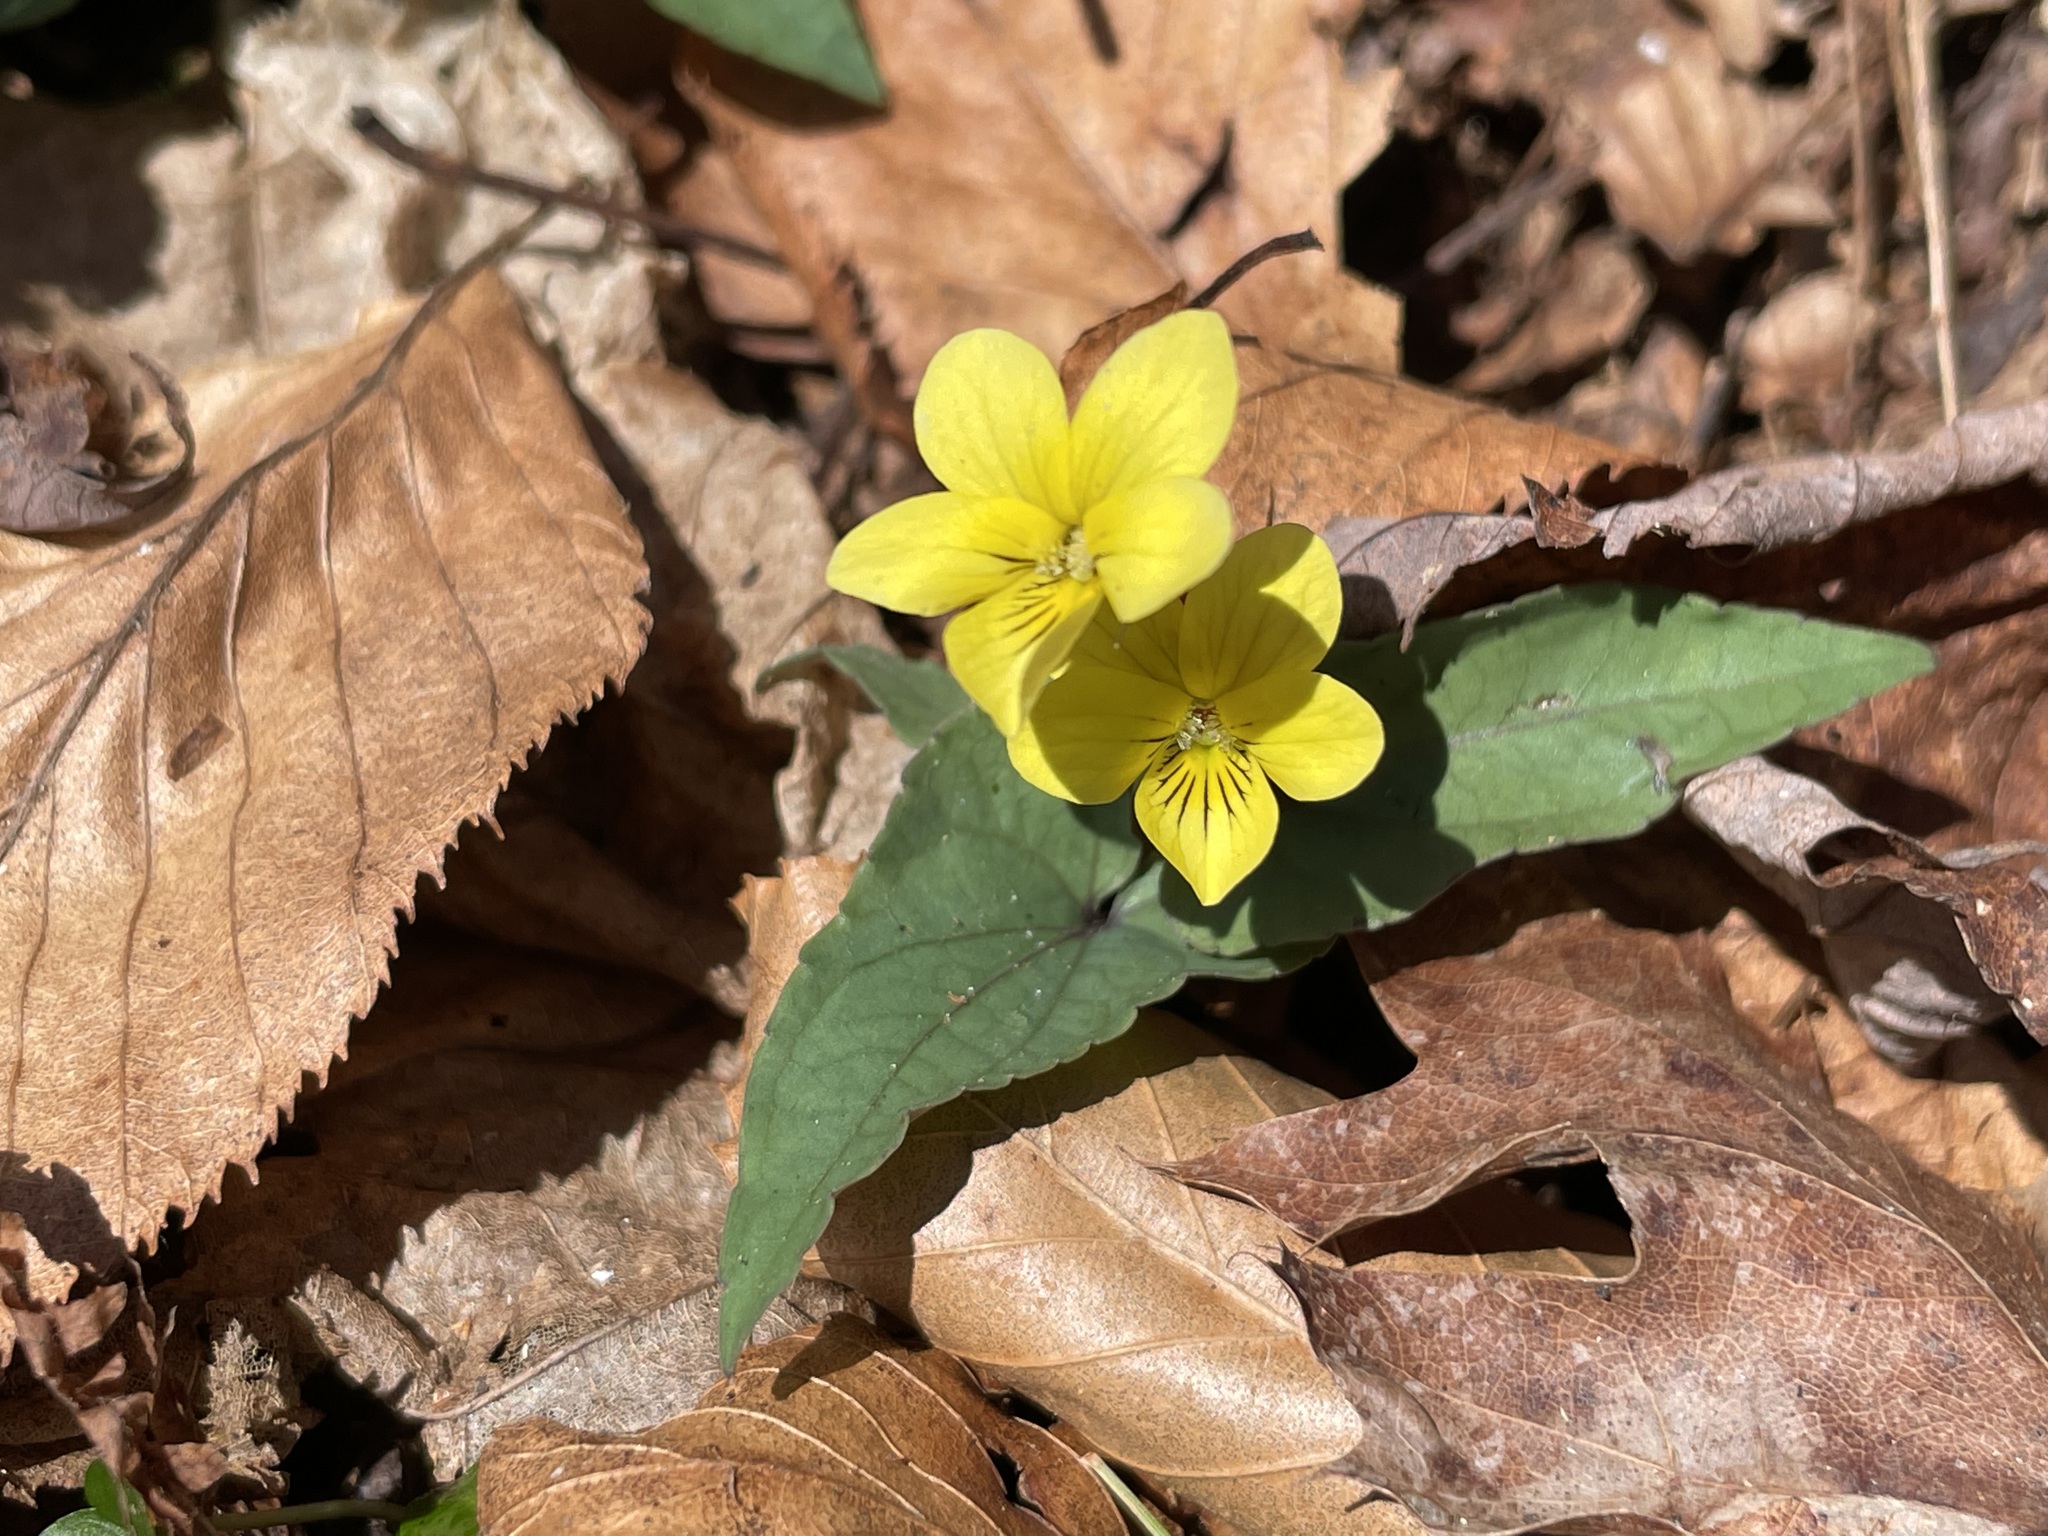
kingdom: Plantae
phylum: Tracheophyta
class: Magnoliopsida
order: Malpighiales
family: Violaceae
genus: Viola
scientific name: Viola hastata
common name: Spear-leaf violet
